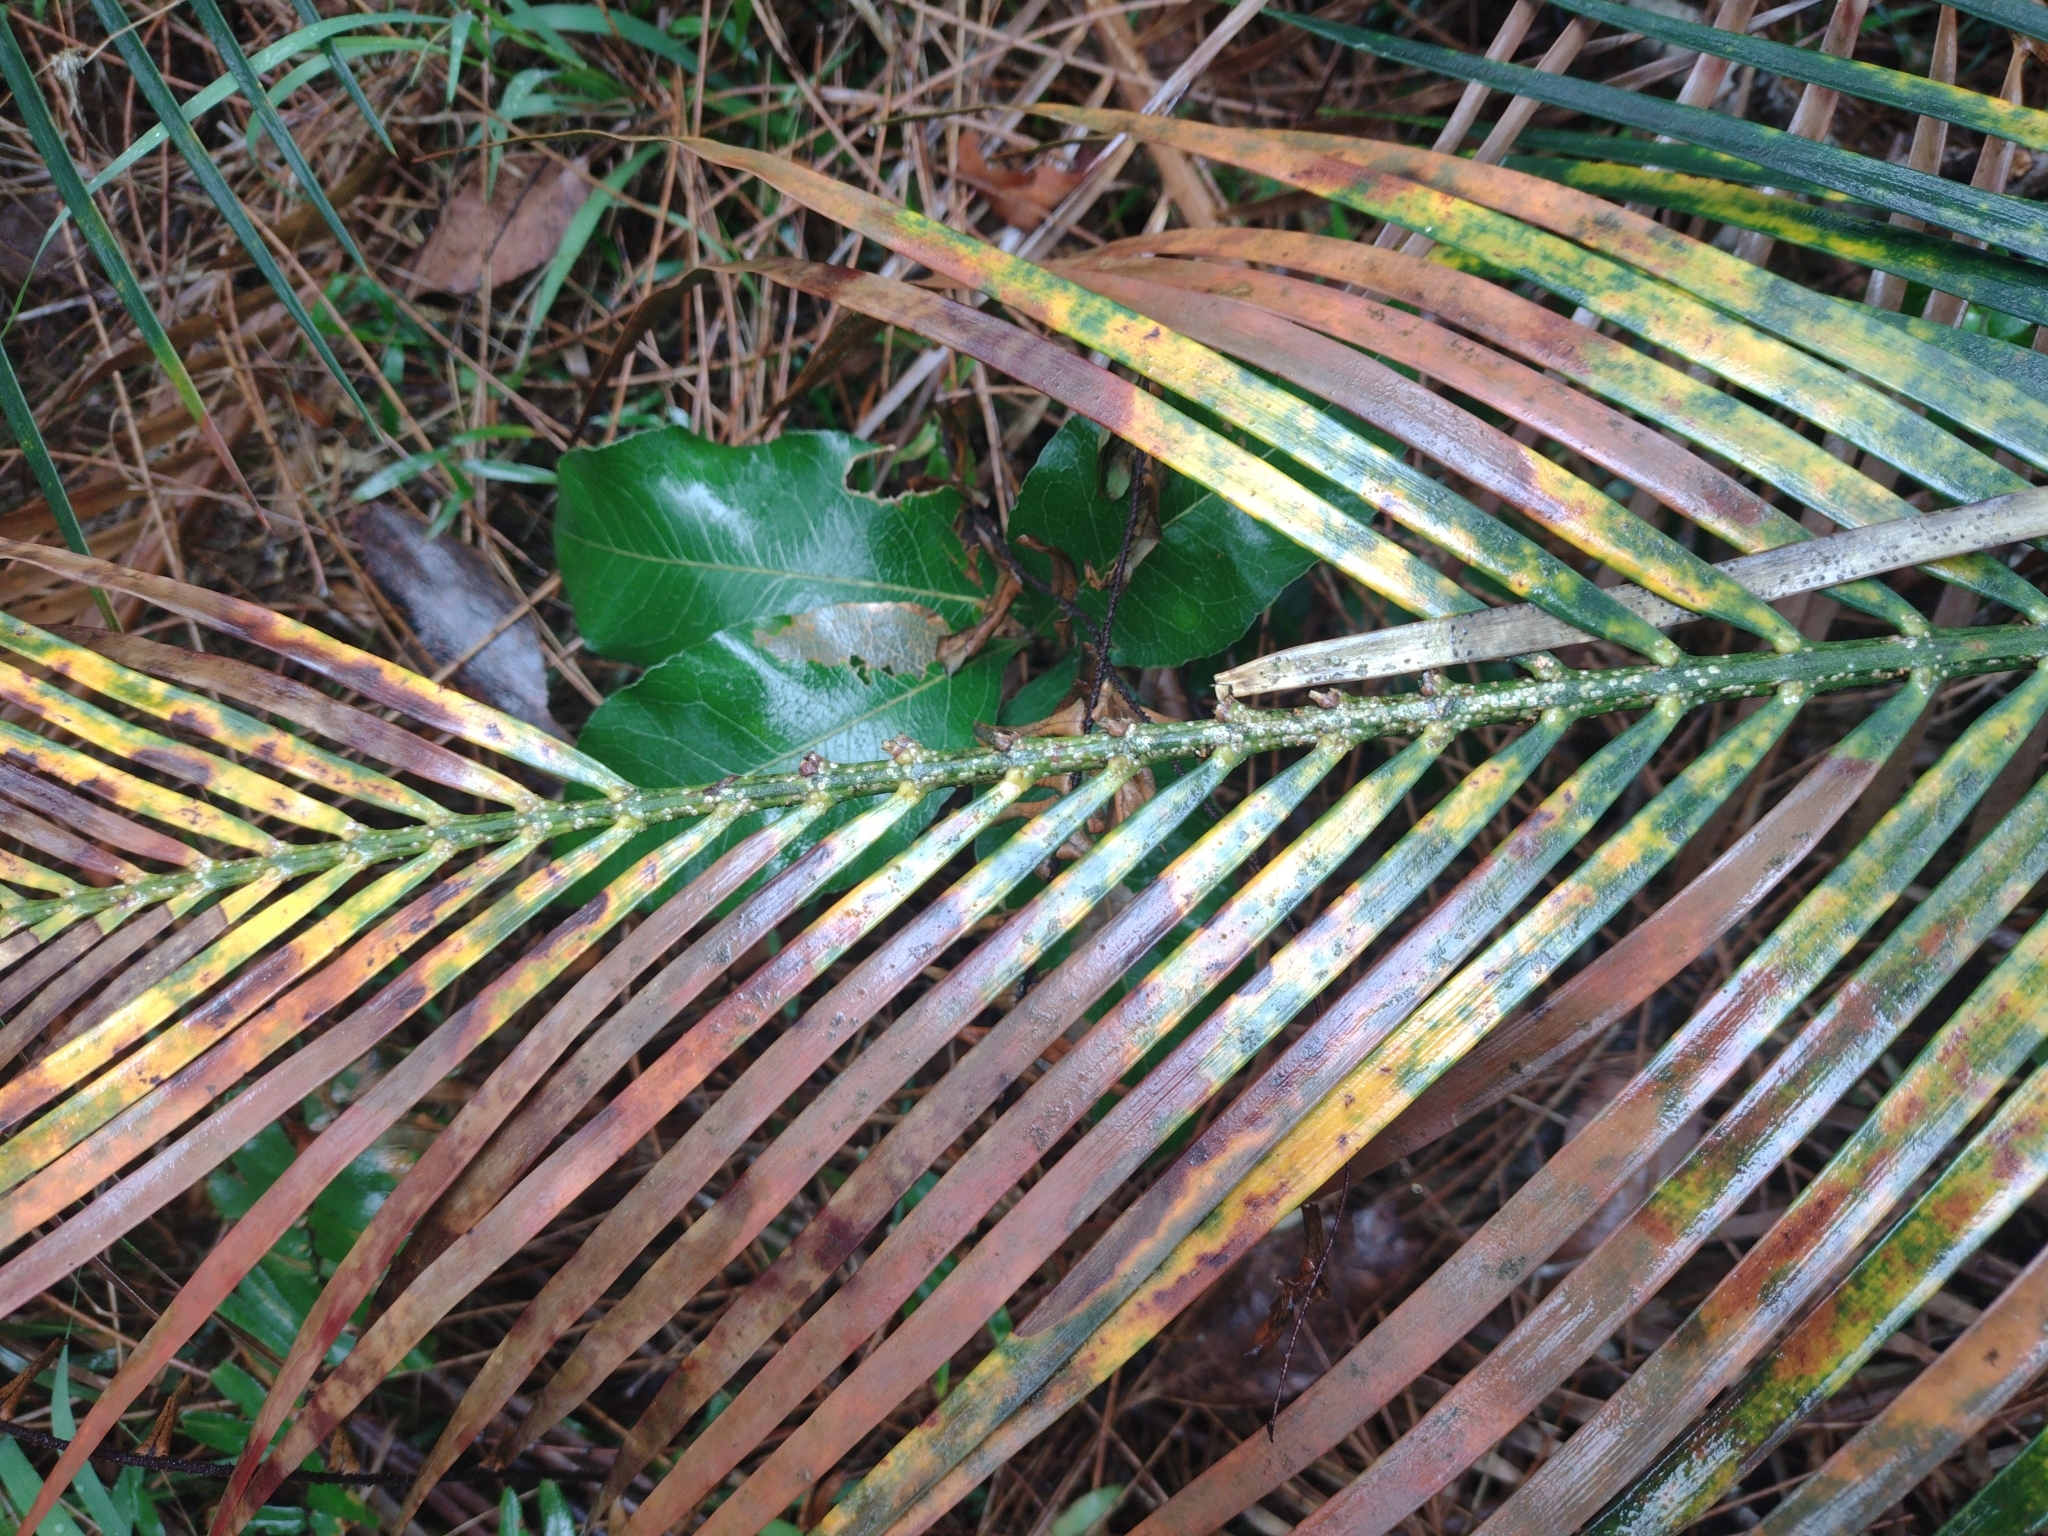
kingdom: Animalia
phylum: Arthropoda
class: Insecta
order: Hemiptera
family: Diaspididae
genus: Aspidiotus
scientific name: Aspidiotus
